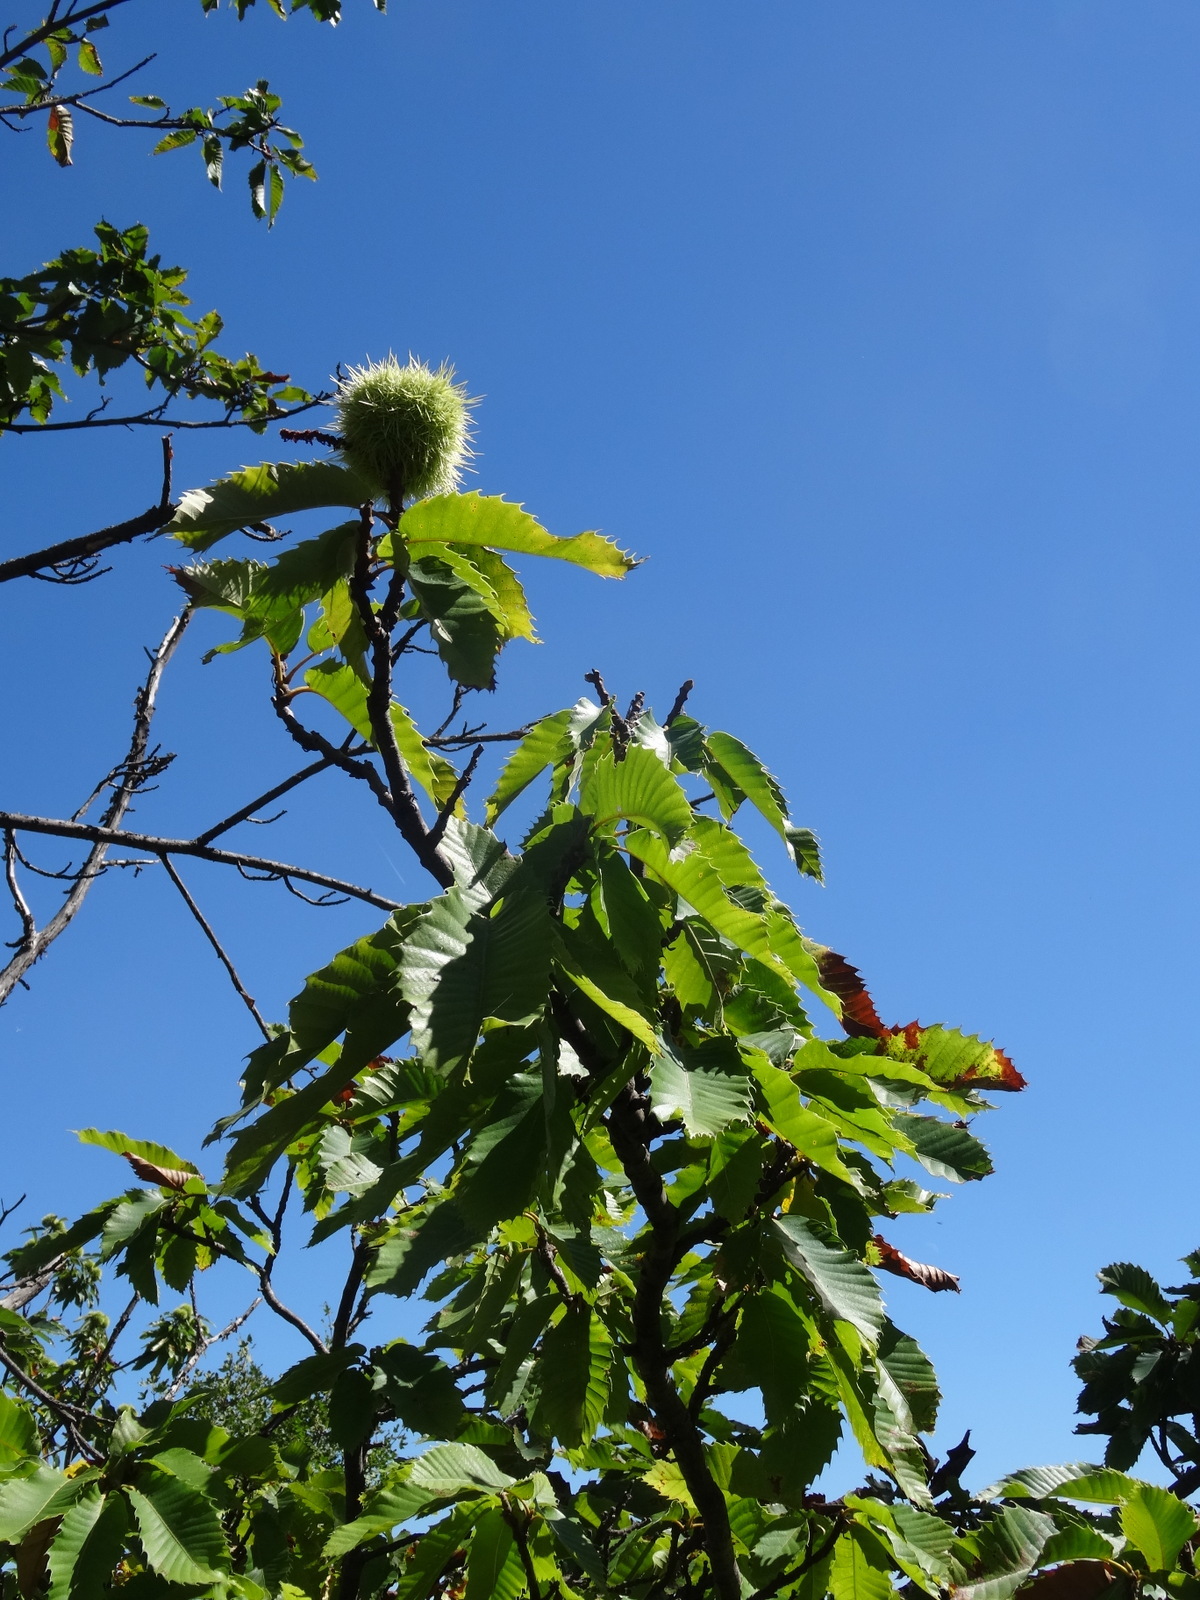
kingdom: Plantae
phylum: Tracheophyta
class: Magnoliopsida
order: Fagales
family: Fagaceae
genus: Castanea
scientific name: Castanea sativa
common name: Sweet chestnut
